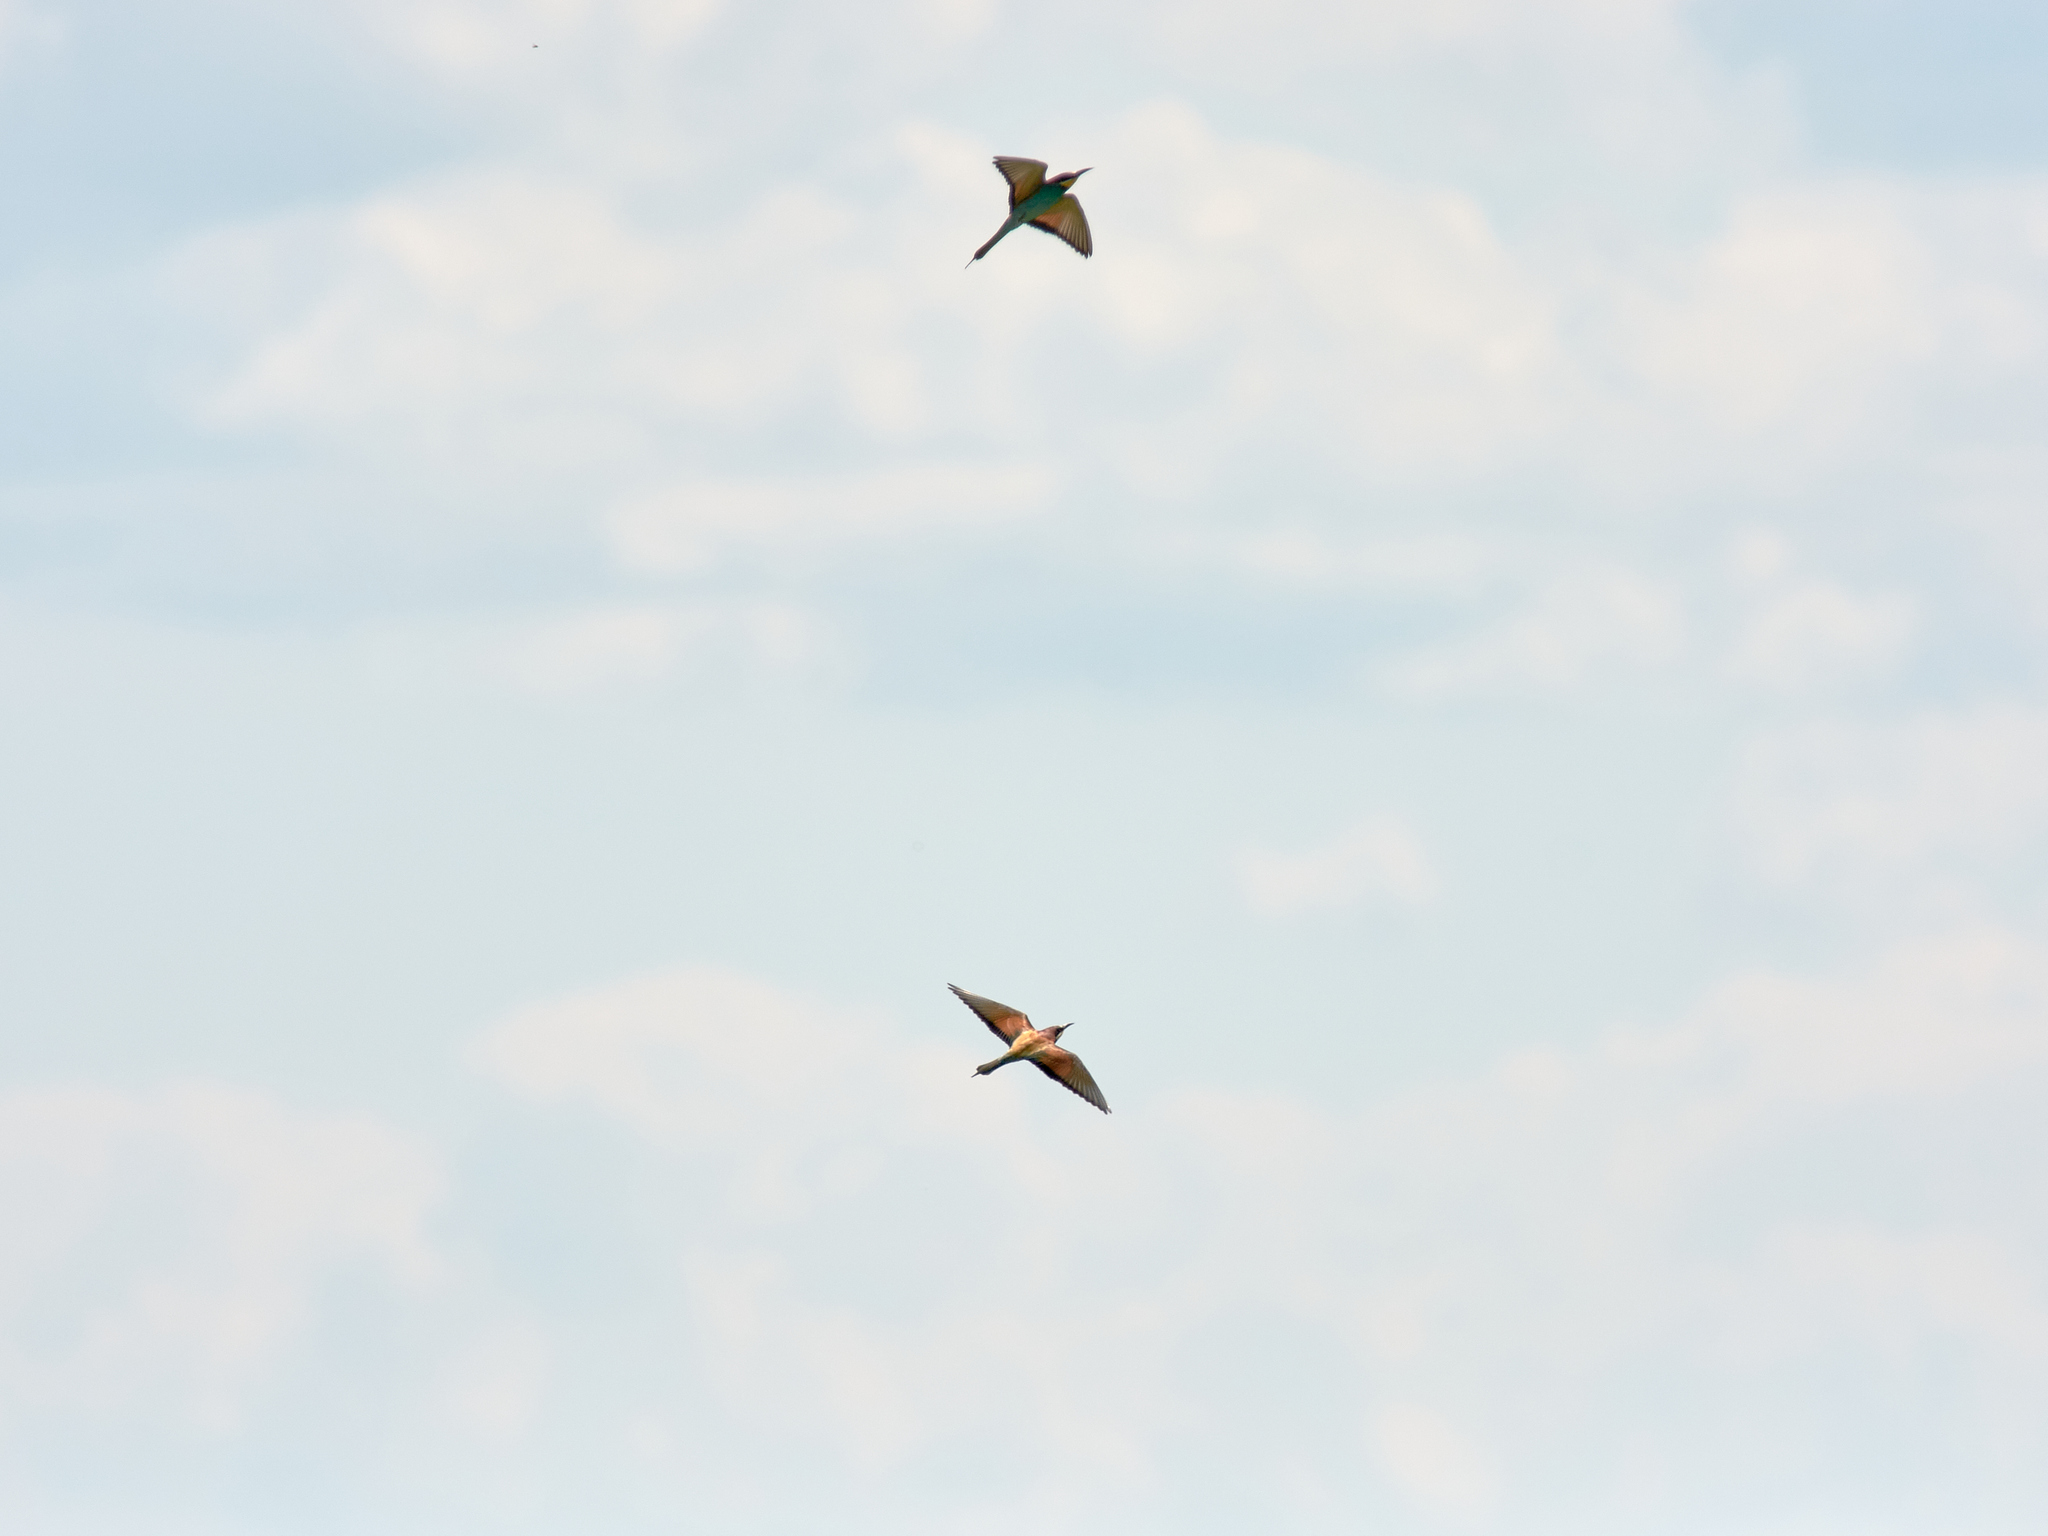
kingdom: Animalia
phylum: Chordata
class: Aves
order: Coraciiformes
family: Meropidae
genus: Merops
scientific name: Merops apiaster
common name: European bee-eater
